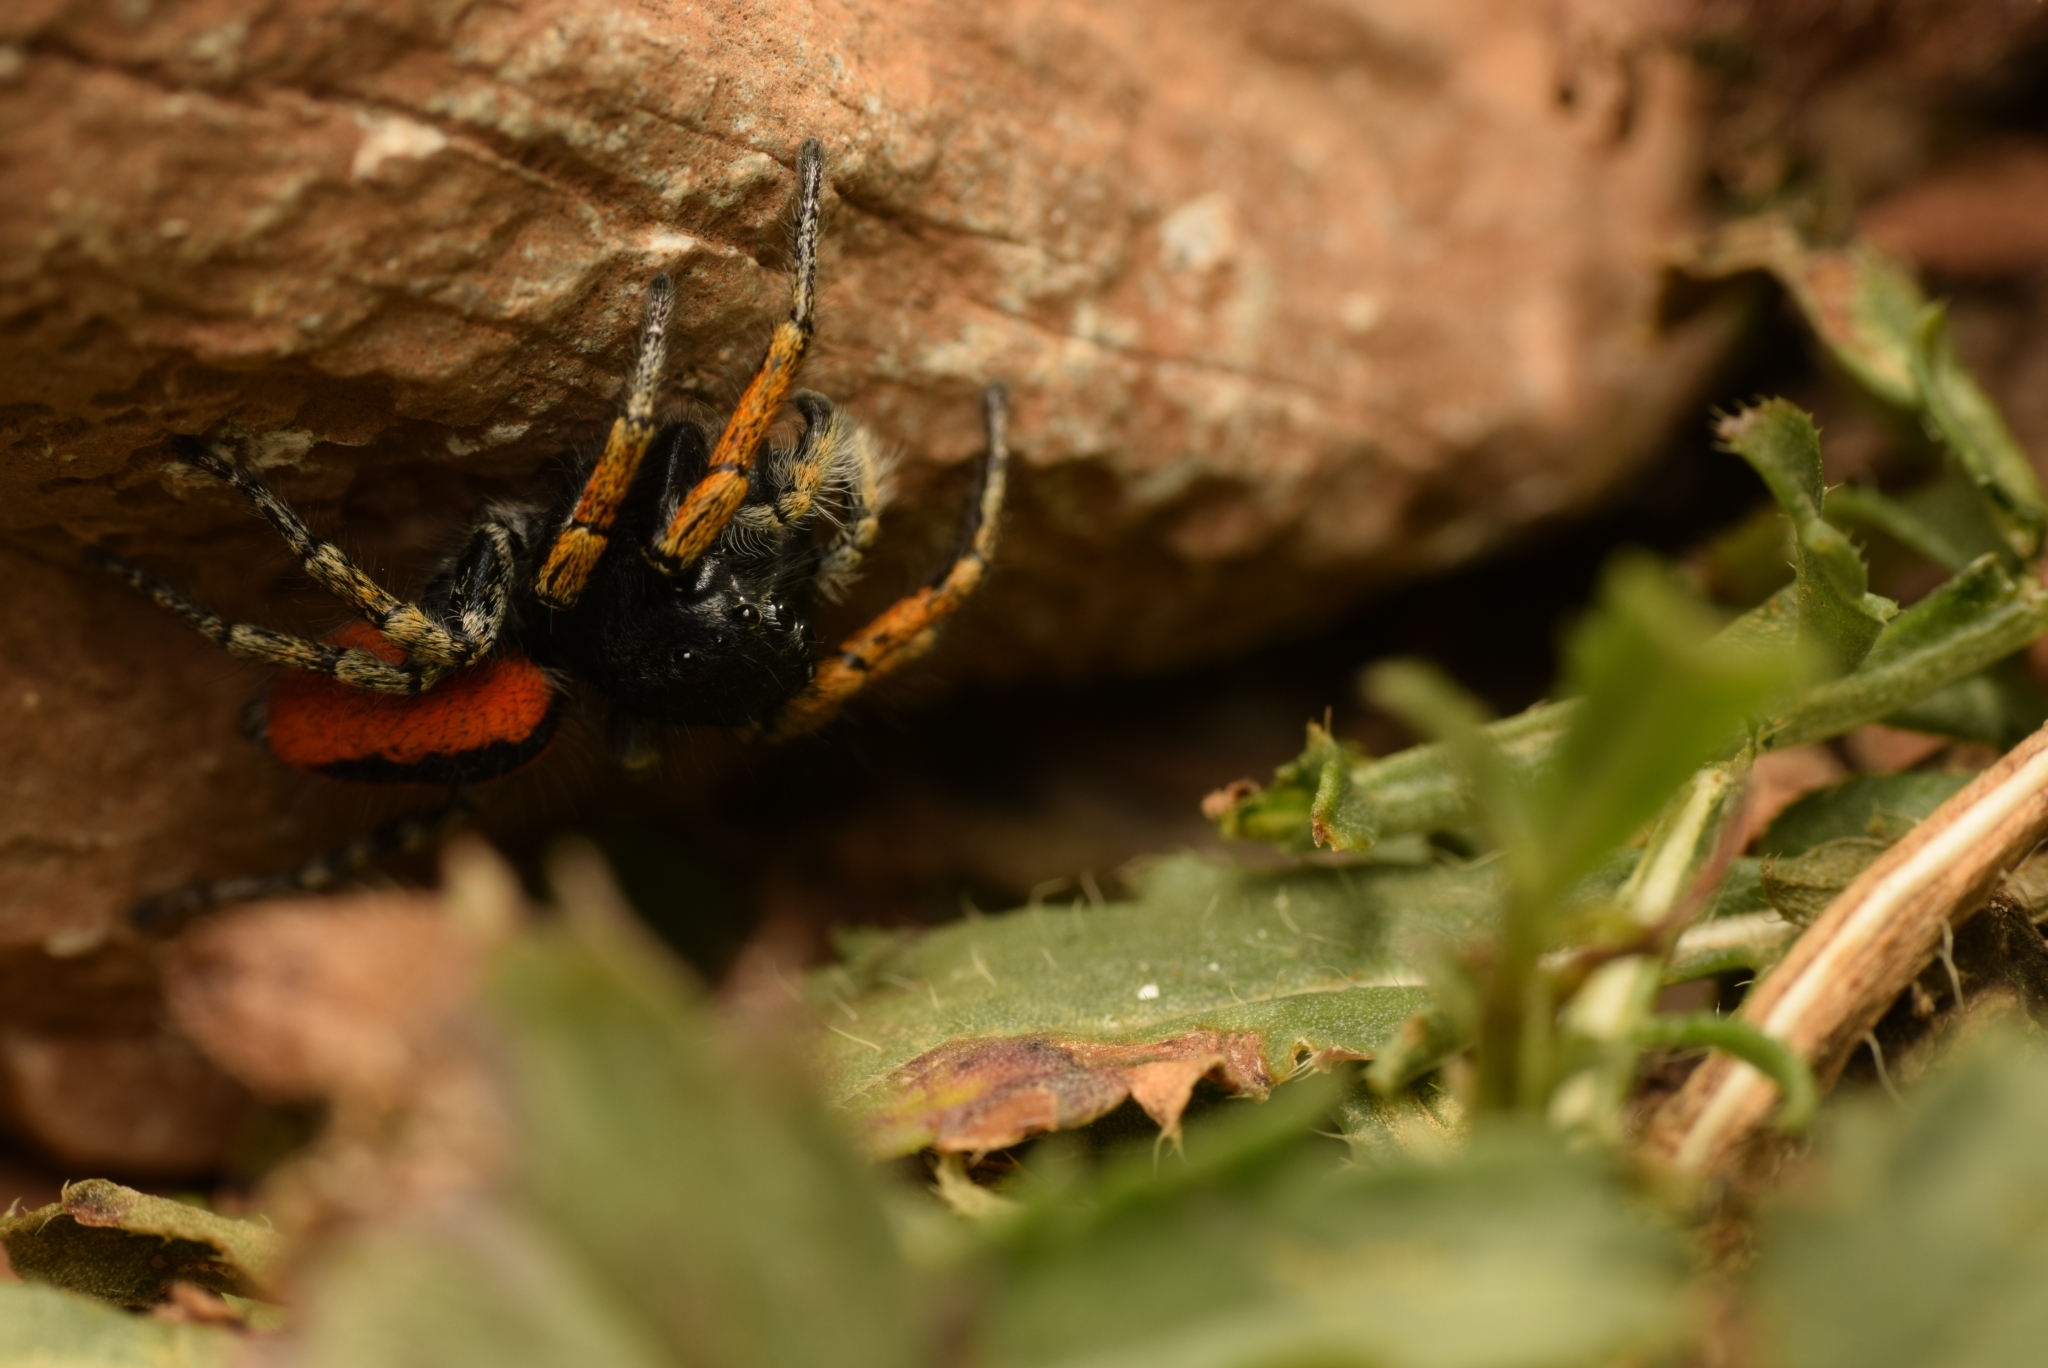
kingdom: Animalia
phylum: Arthropoda
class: Arachnida
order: Araneae
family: Salticidae
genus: Philaeus
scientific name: Philaeus chrysops
